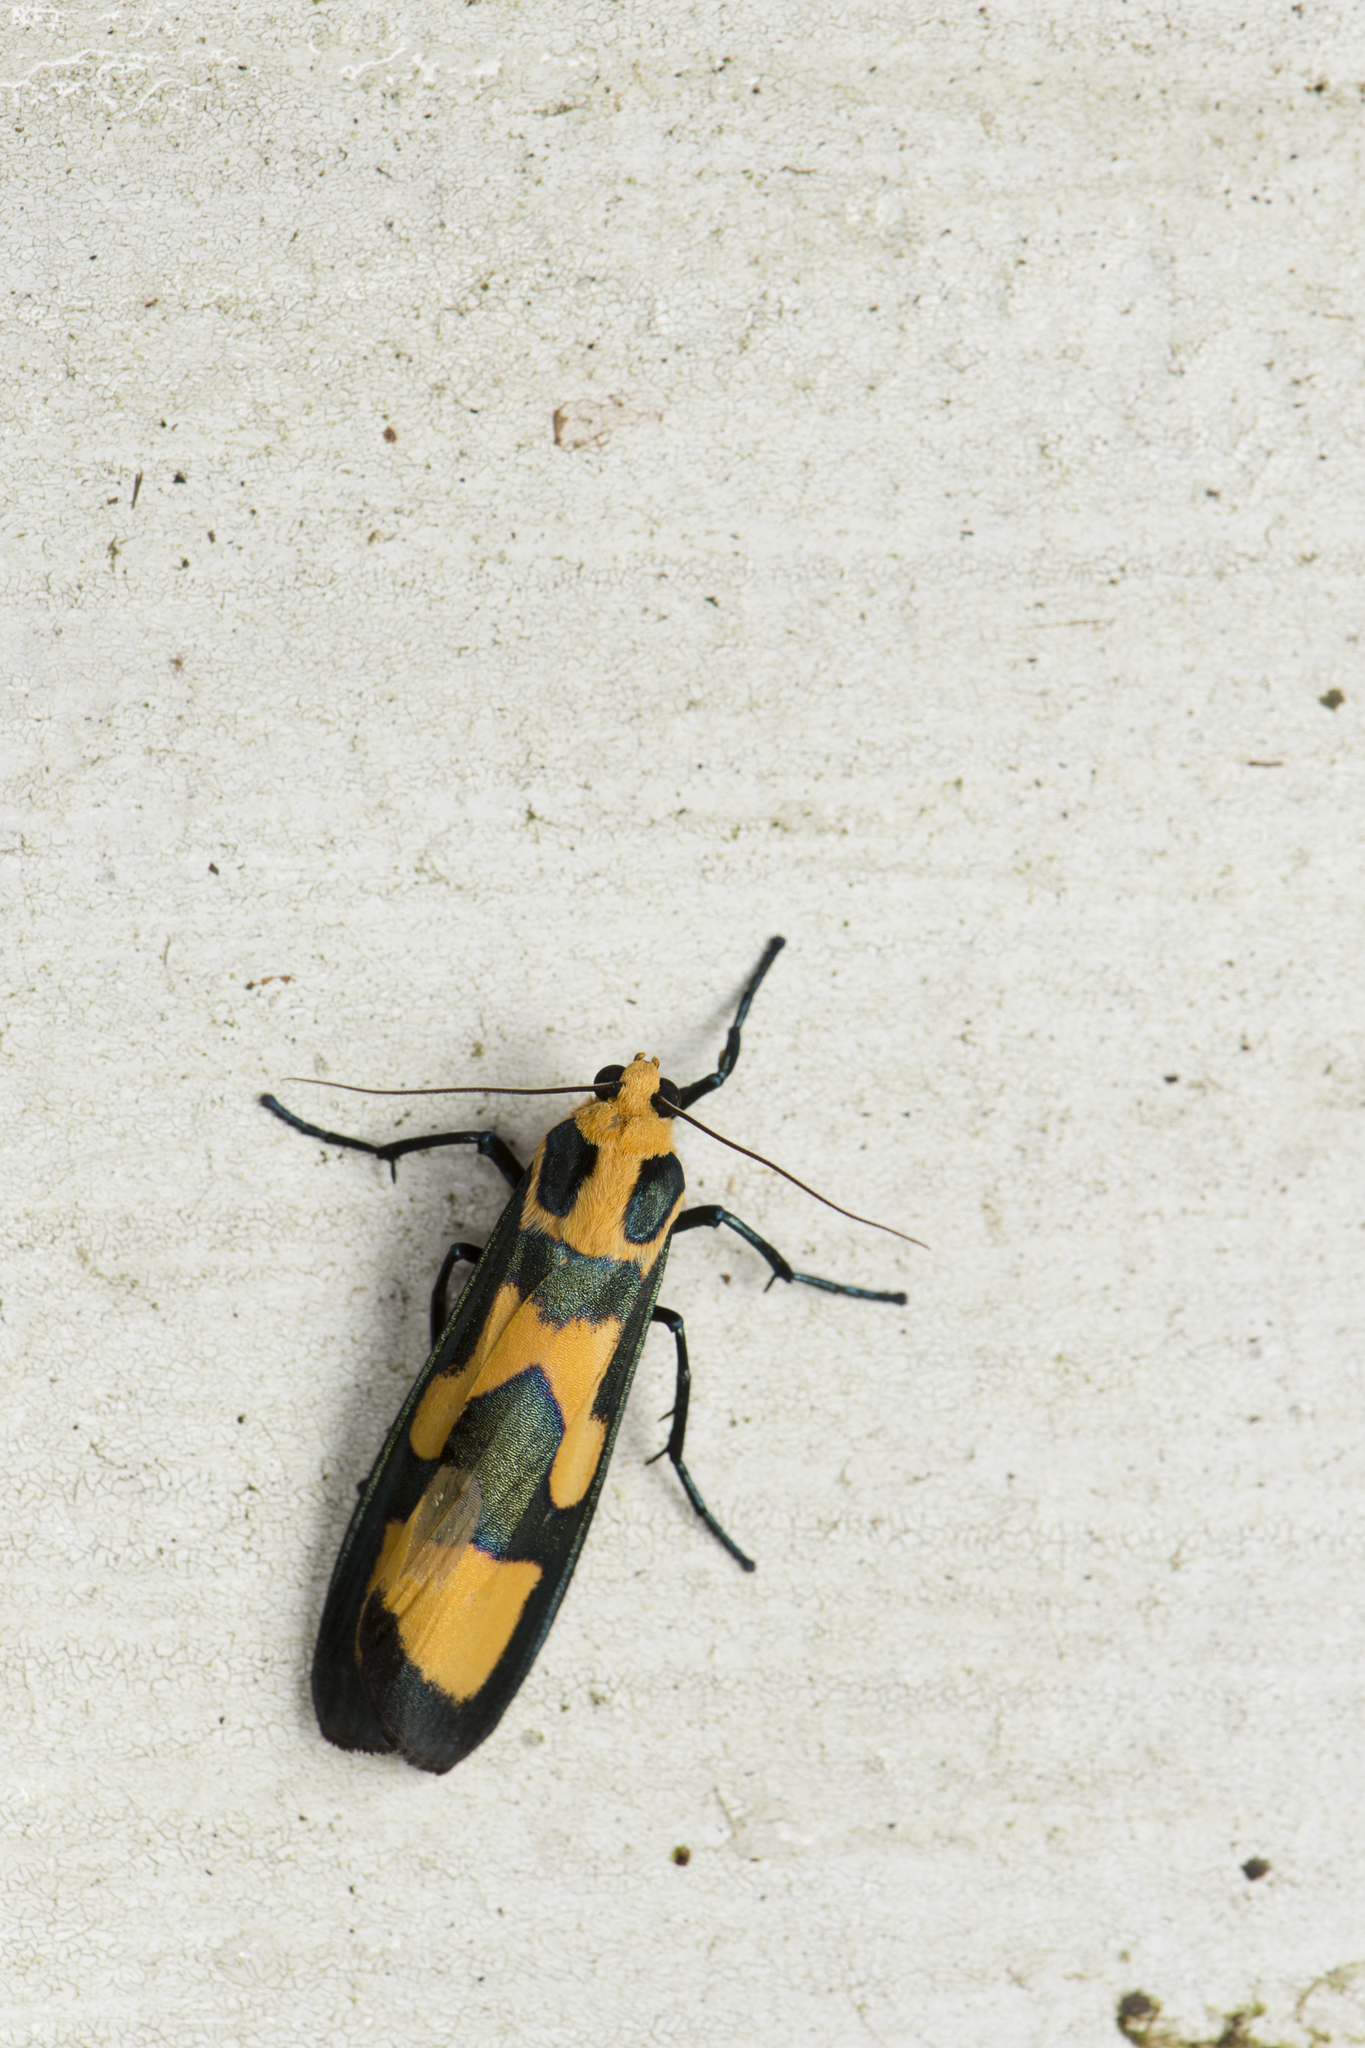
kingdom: Animalia
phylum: Arthropoda
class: Insecta
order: Lepidoptera
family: Erebidae
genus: Chrysaeglia
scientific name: Chrysaeglia magnifica
